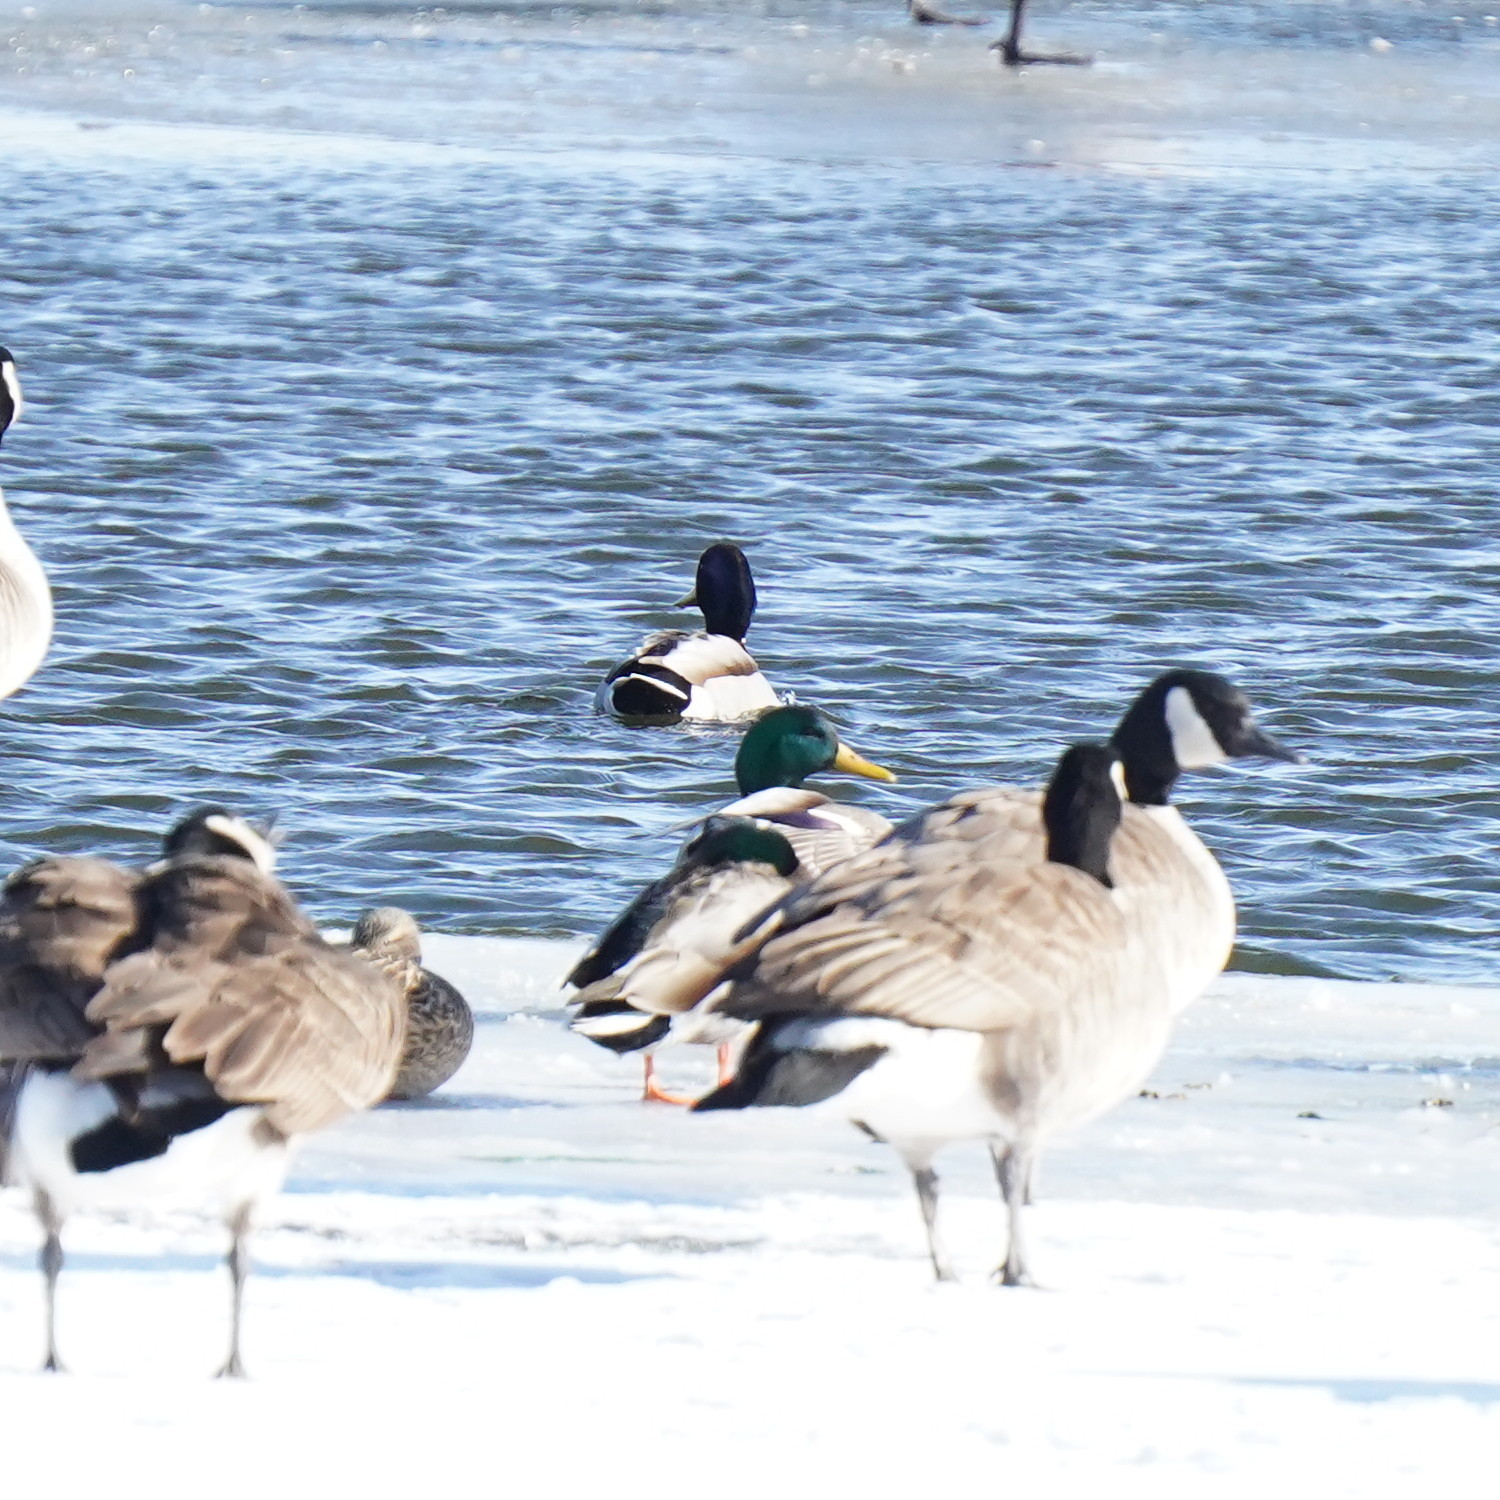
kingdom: Animalia
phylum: Chordata
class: Aves
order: Anseriformes
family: Anatidae
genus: Branta
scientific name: Branta canadensis
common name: Canada goose
